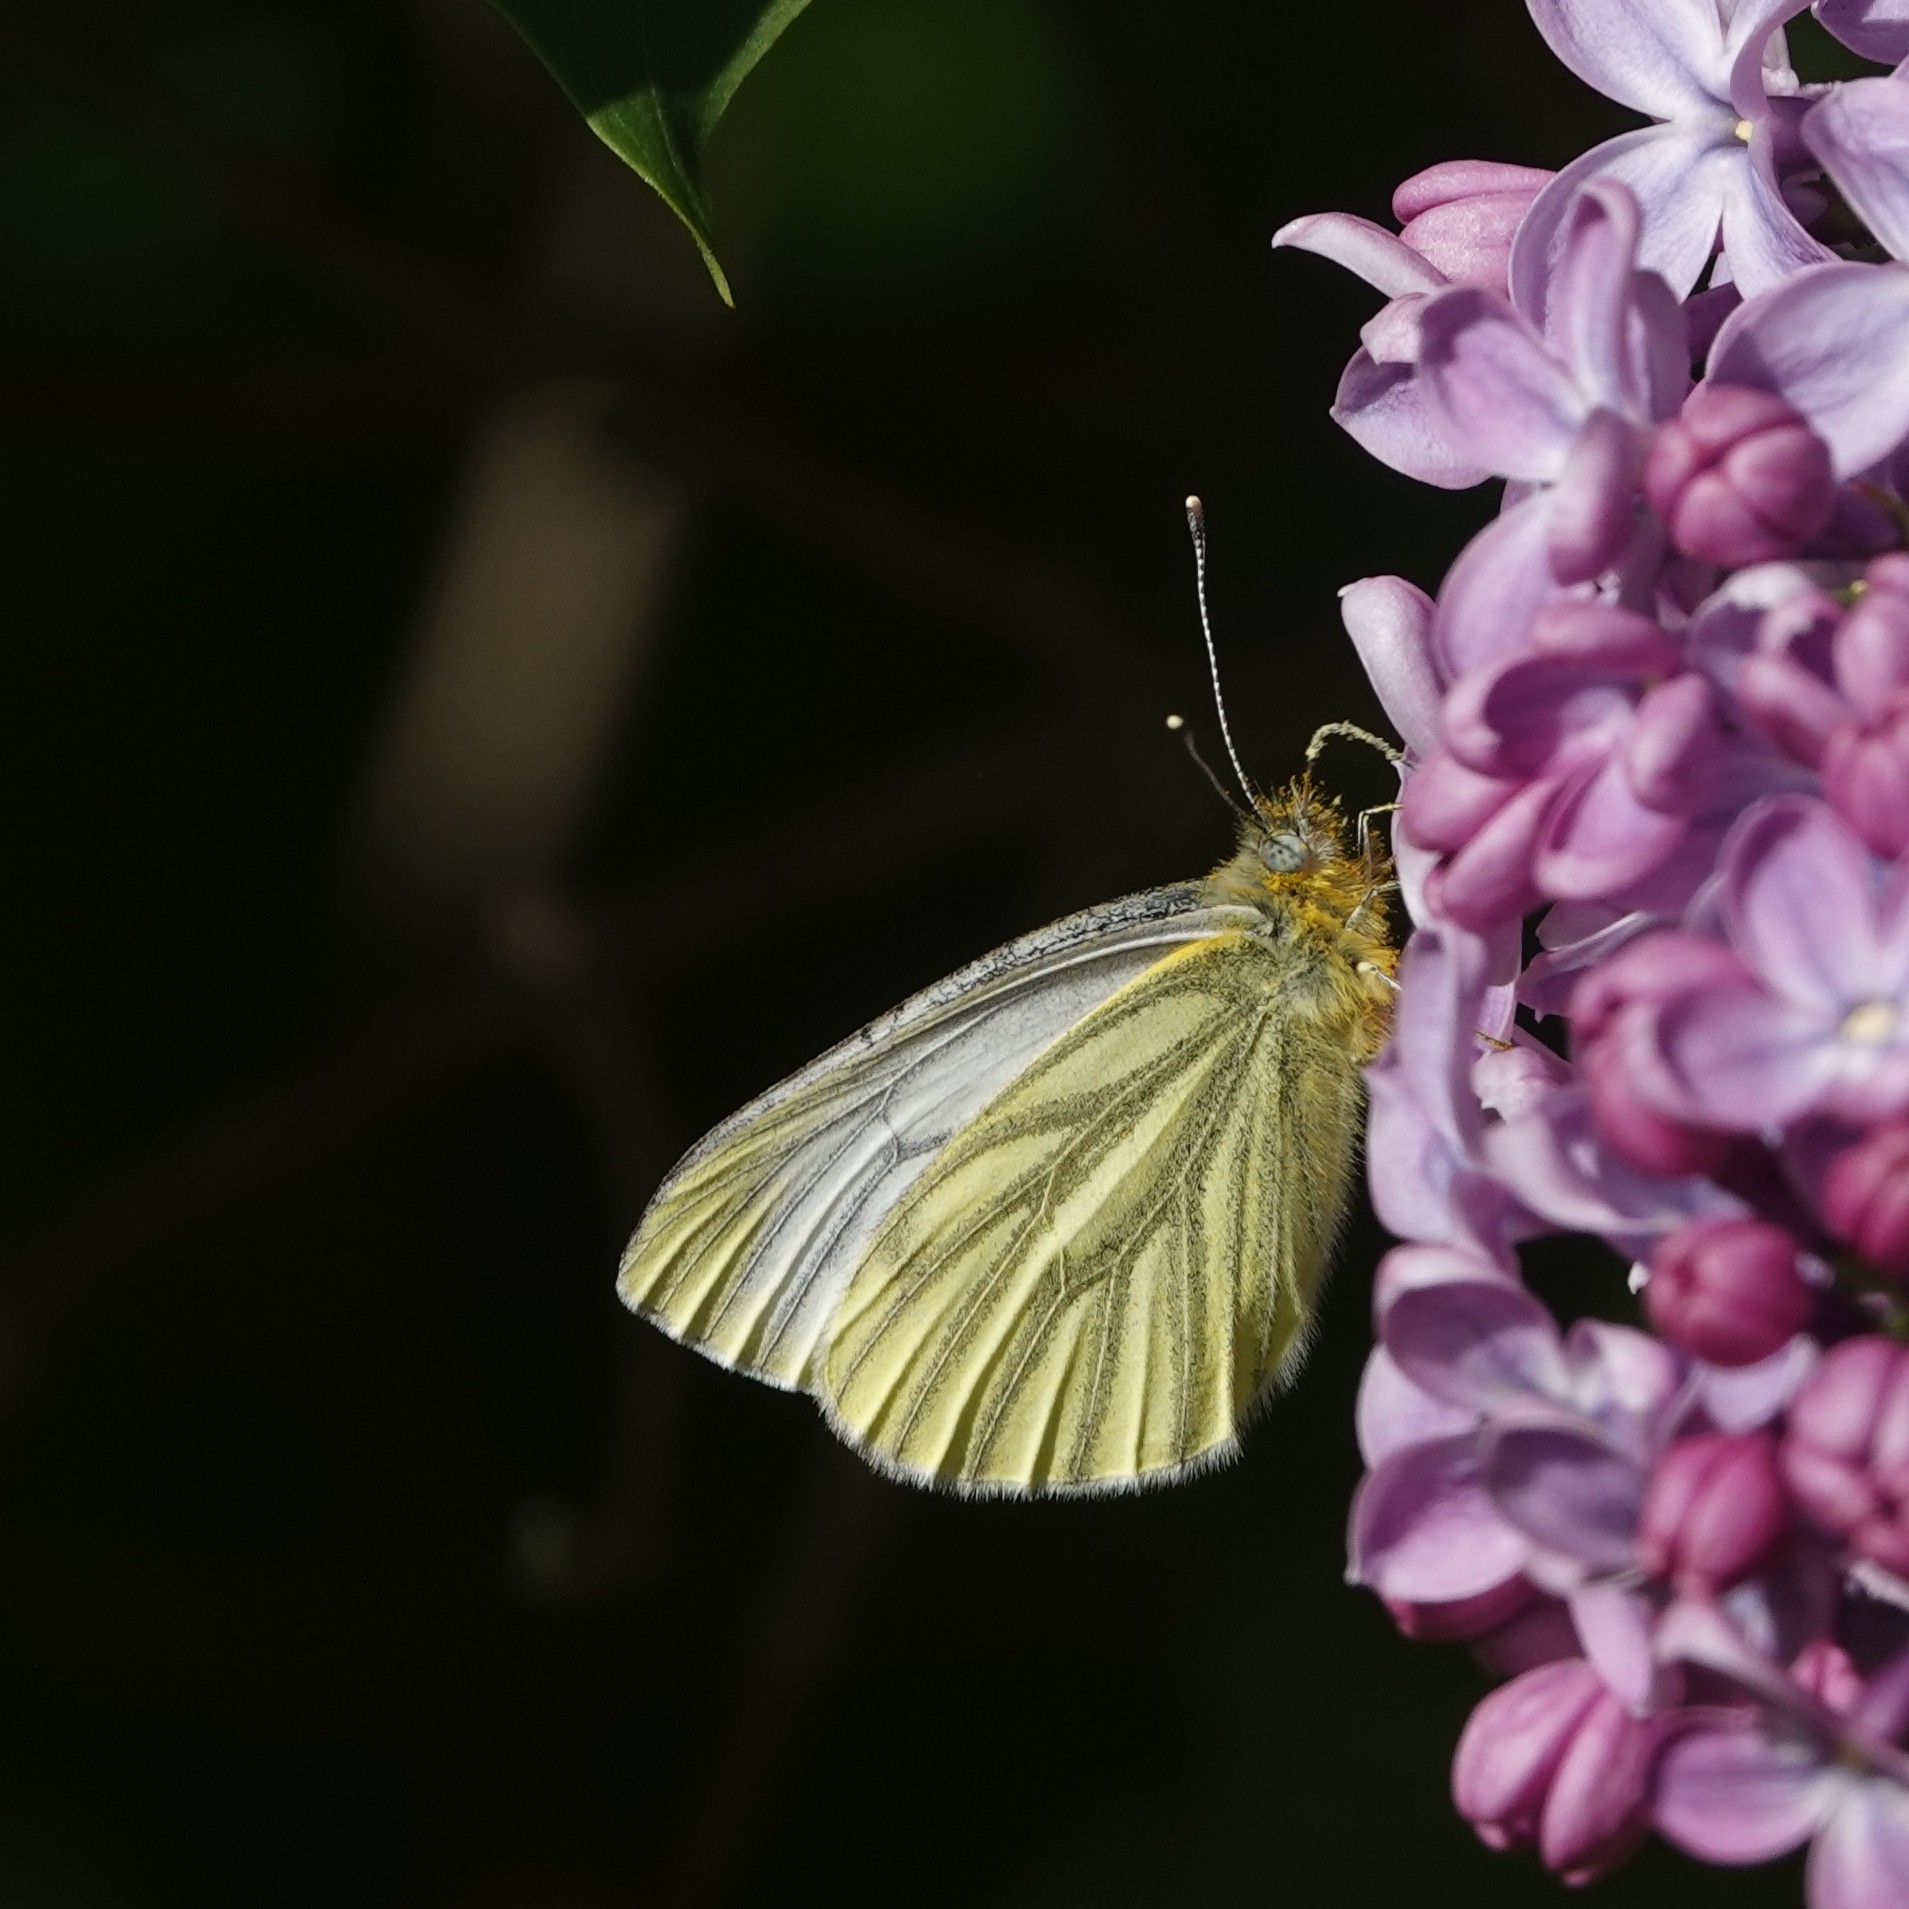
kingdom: Animalia
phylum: Arthropoda
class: Insecta
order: Lepidoptera
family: Pieridae
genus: Pieris
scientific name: Pieris napi
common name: Green-veined white
